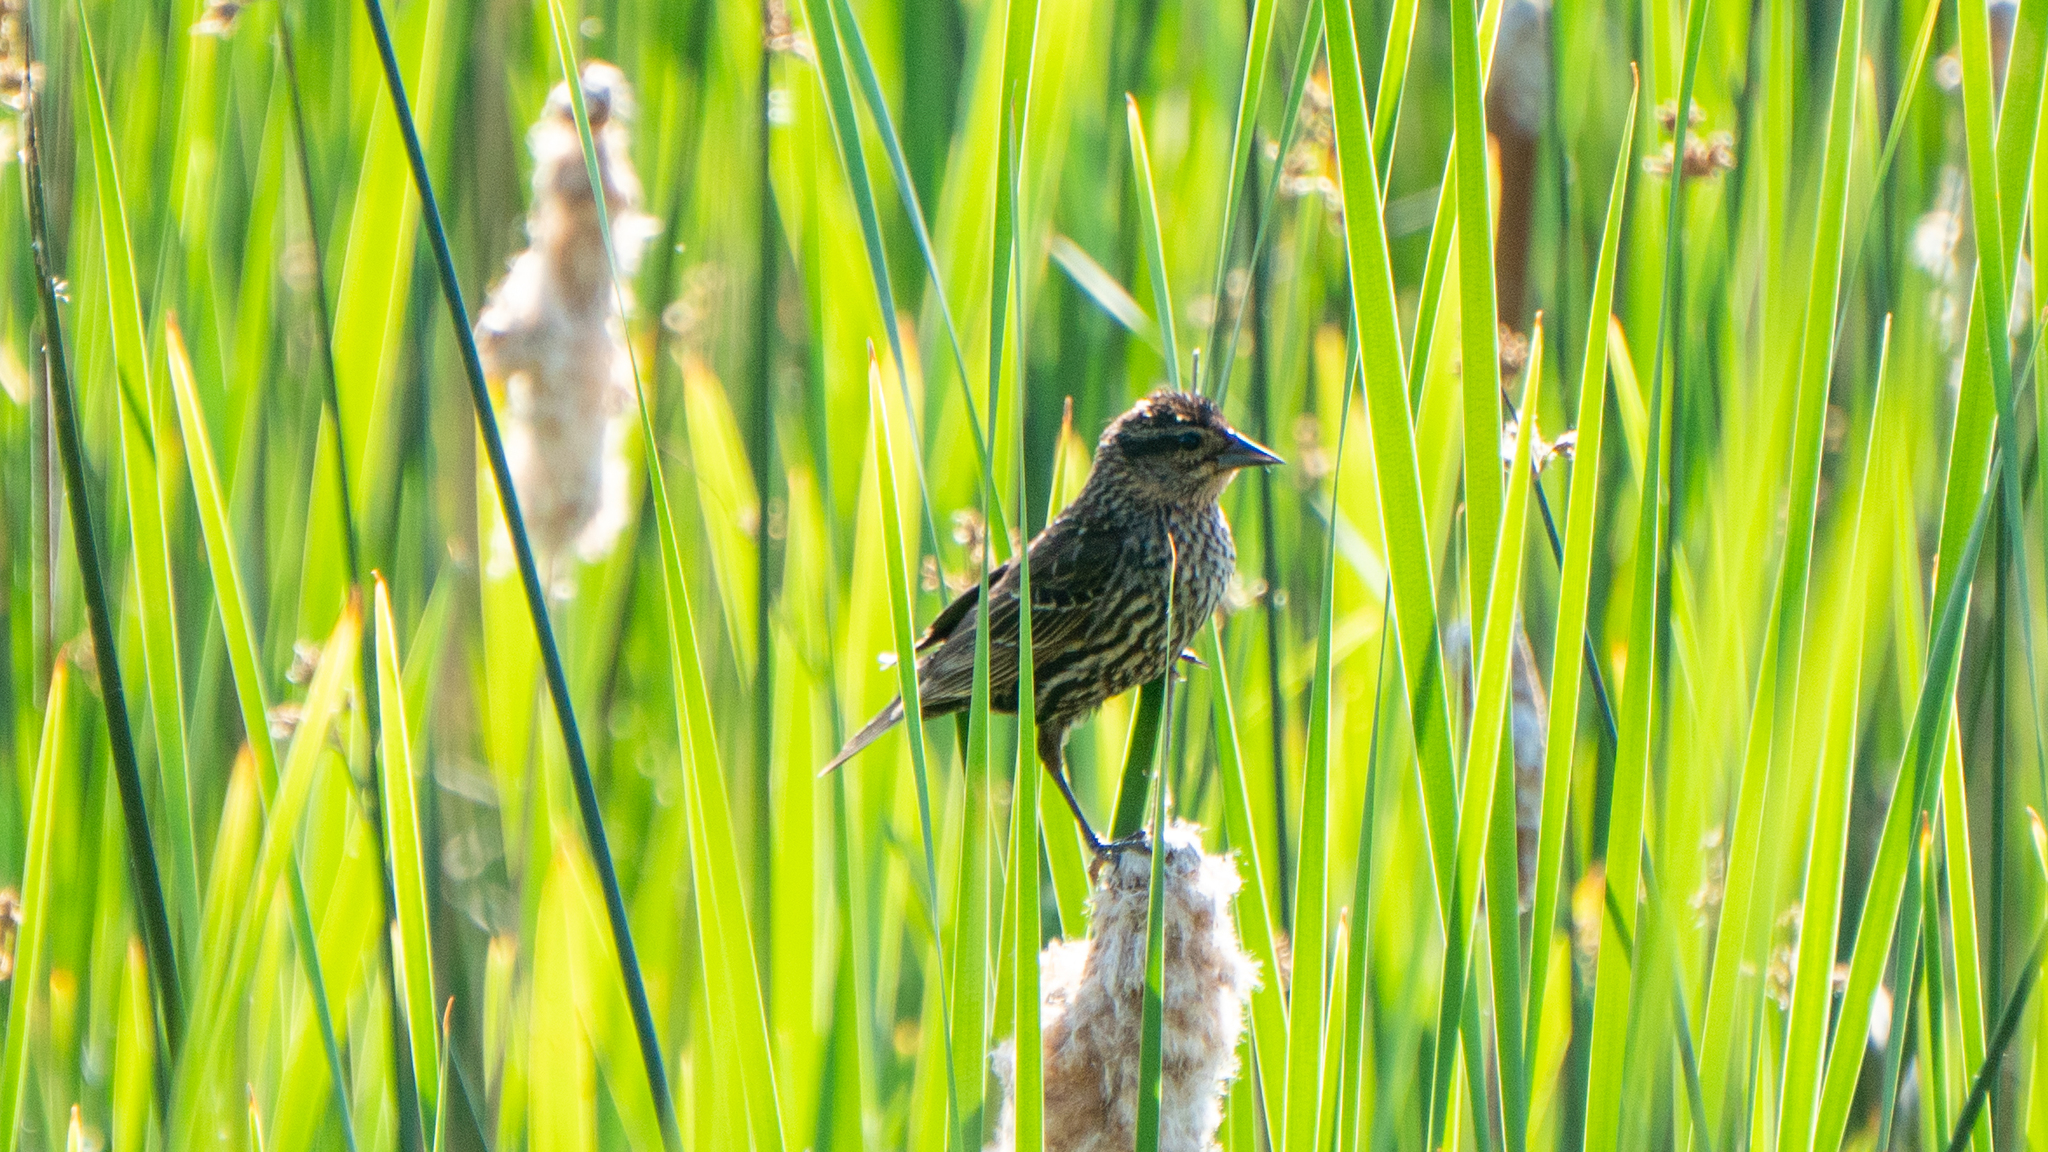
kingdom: Animalia
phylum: Chordata
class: Aves
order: Passeriformes
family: Icteridae
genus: Agelaius
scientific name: Agelaius phoeniceus
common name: Red-winged blackbird
